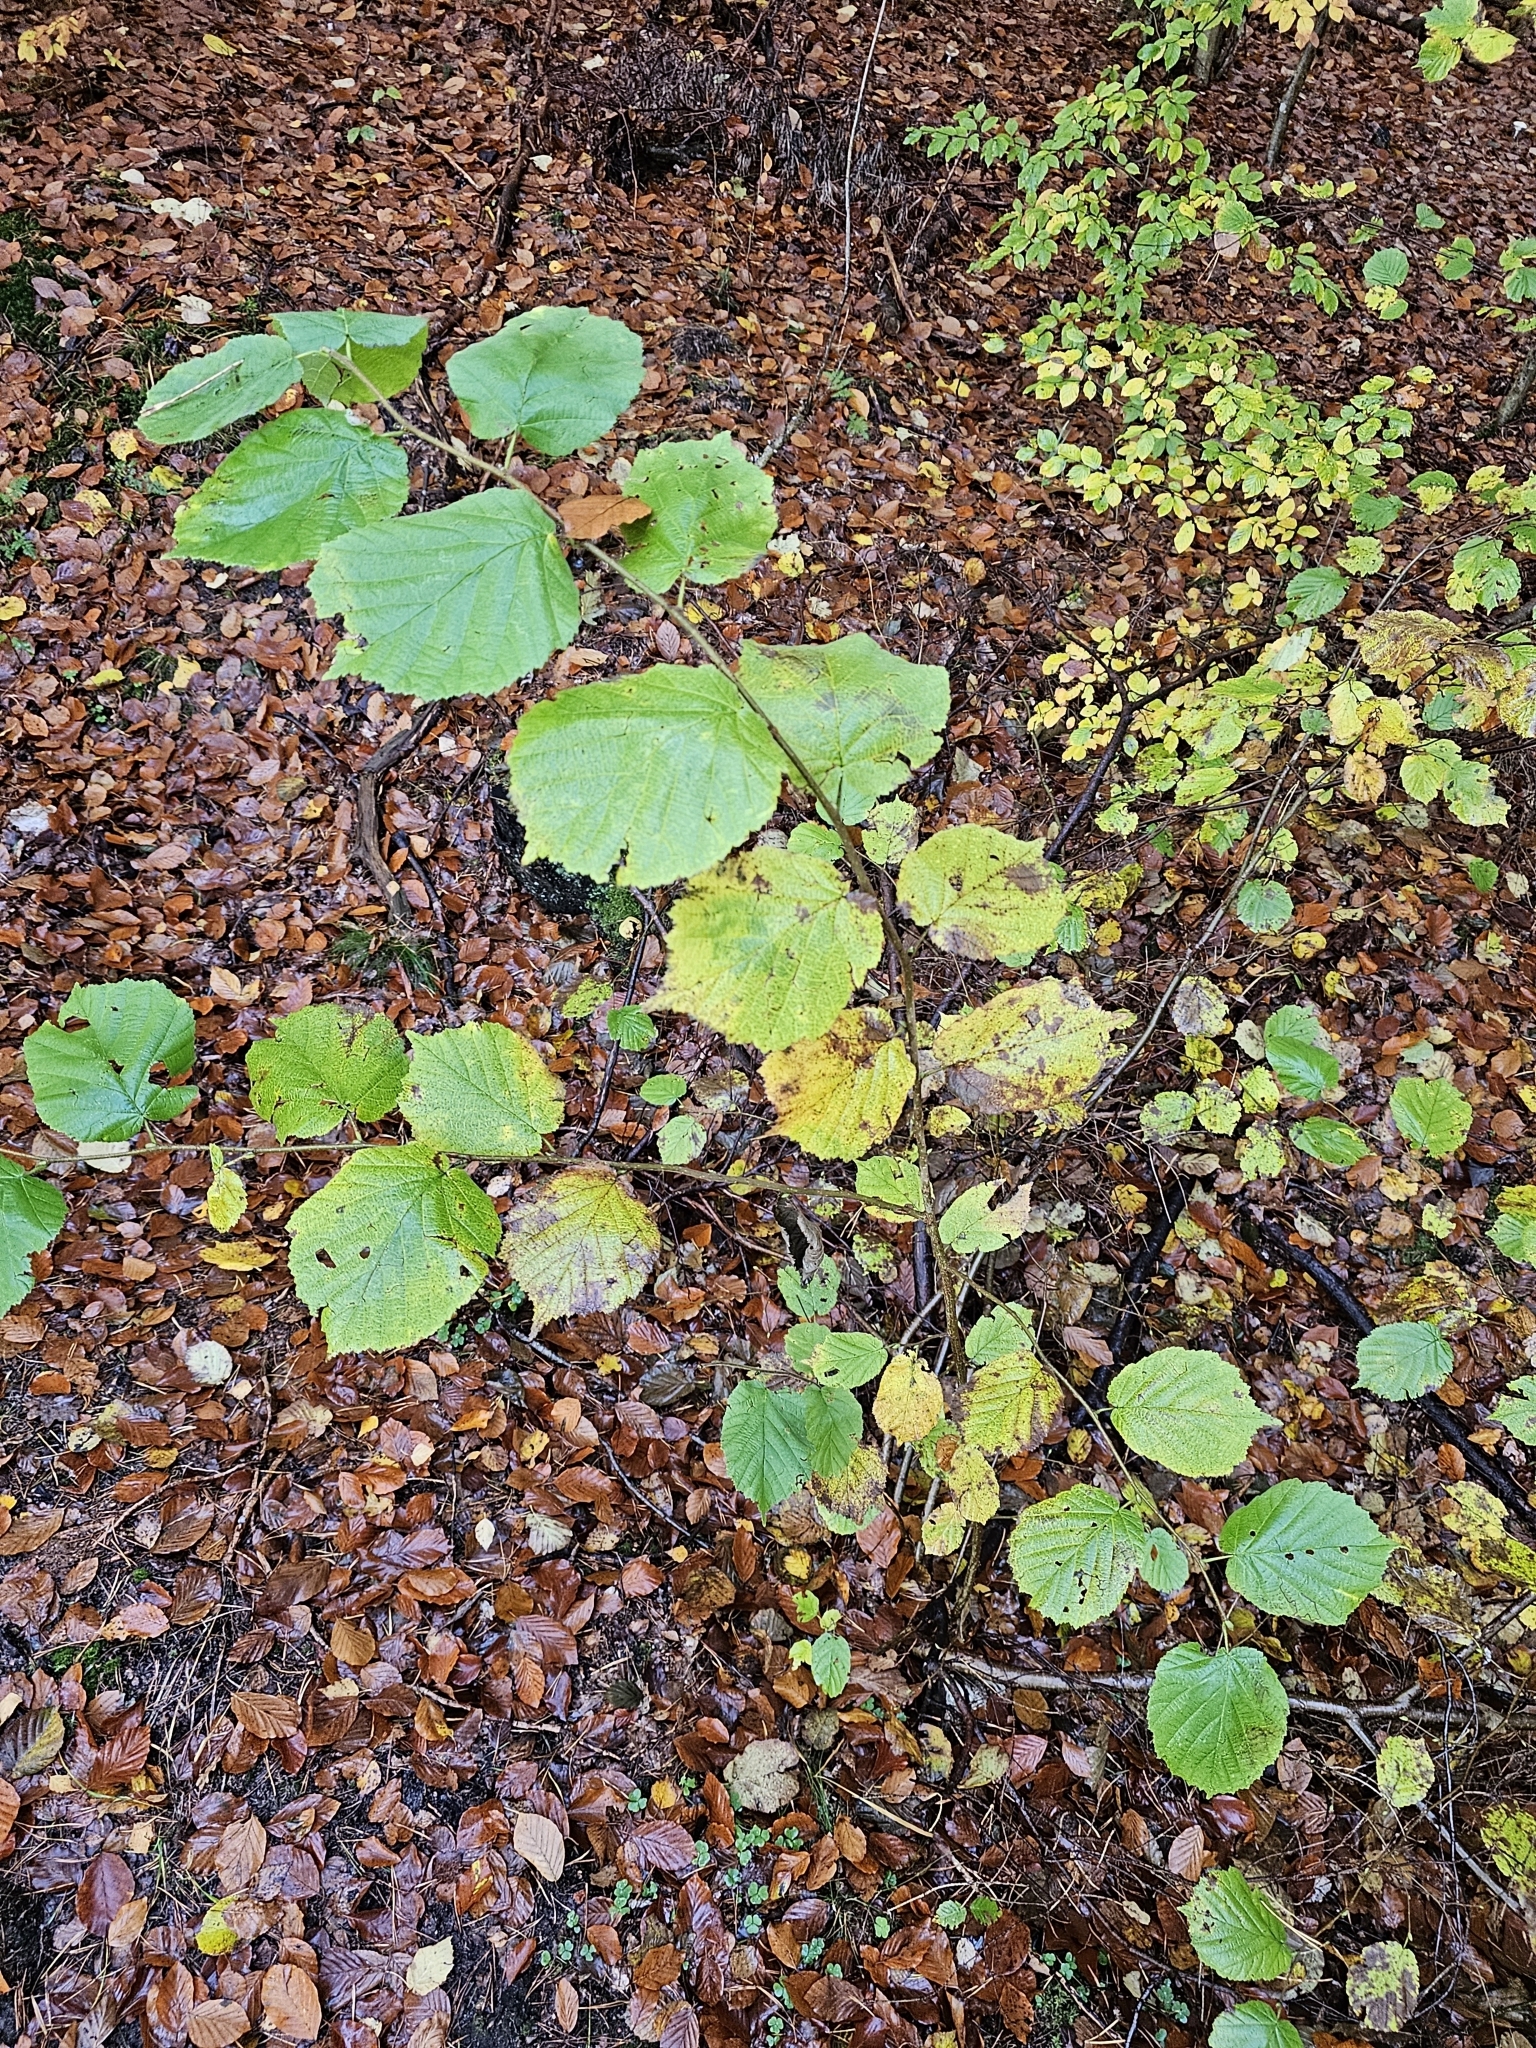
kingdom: Plantae
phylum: Tracheophyta
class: Magnoliopsida
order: Fagales
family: Betulaceae
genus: Corylus
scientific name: Corylus avellana
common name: European hazel
